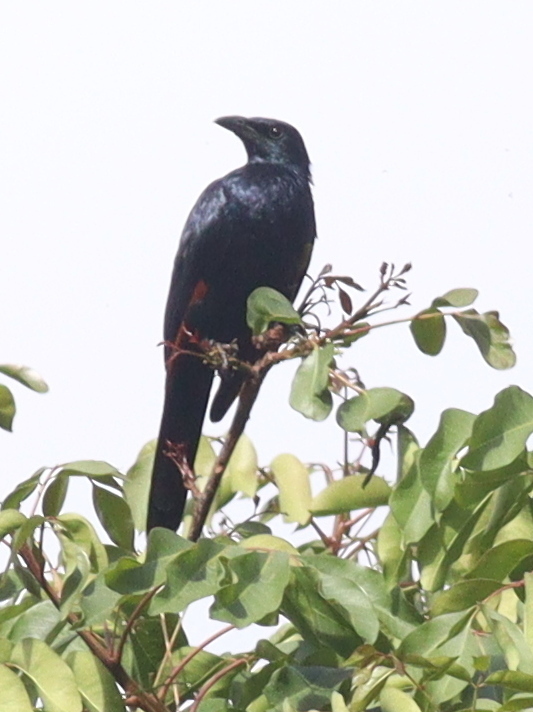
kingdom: Animalia
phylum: Chordata
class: Aves
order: Passeriformes
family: Sturnidae
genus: Onychognathus
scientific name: Onychognathus morio
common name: Red-winged starling
